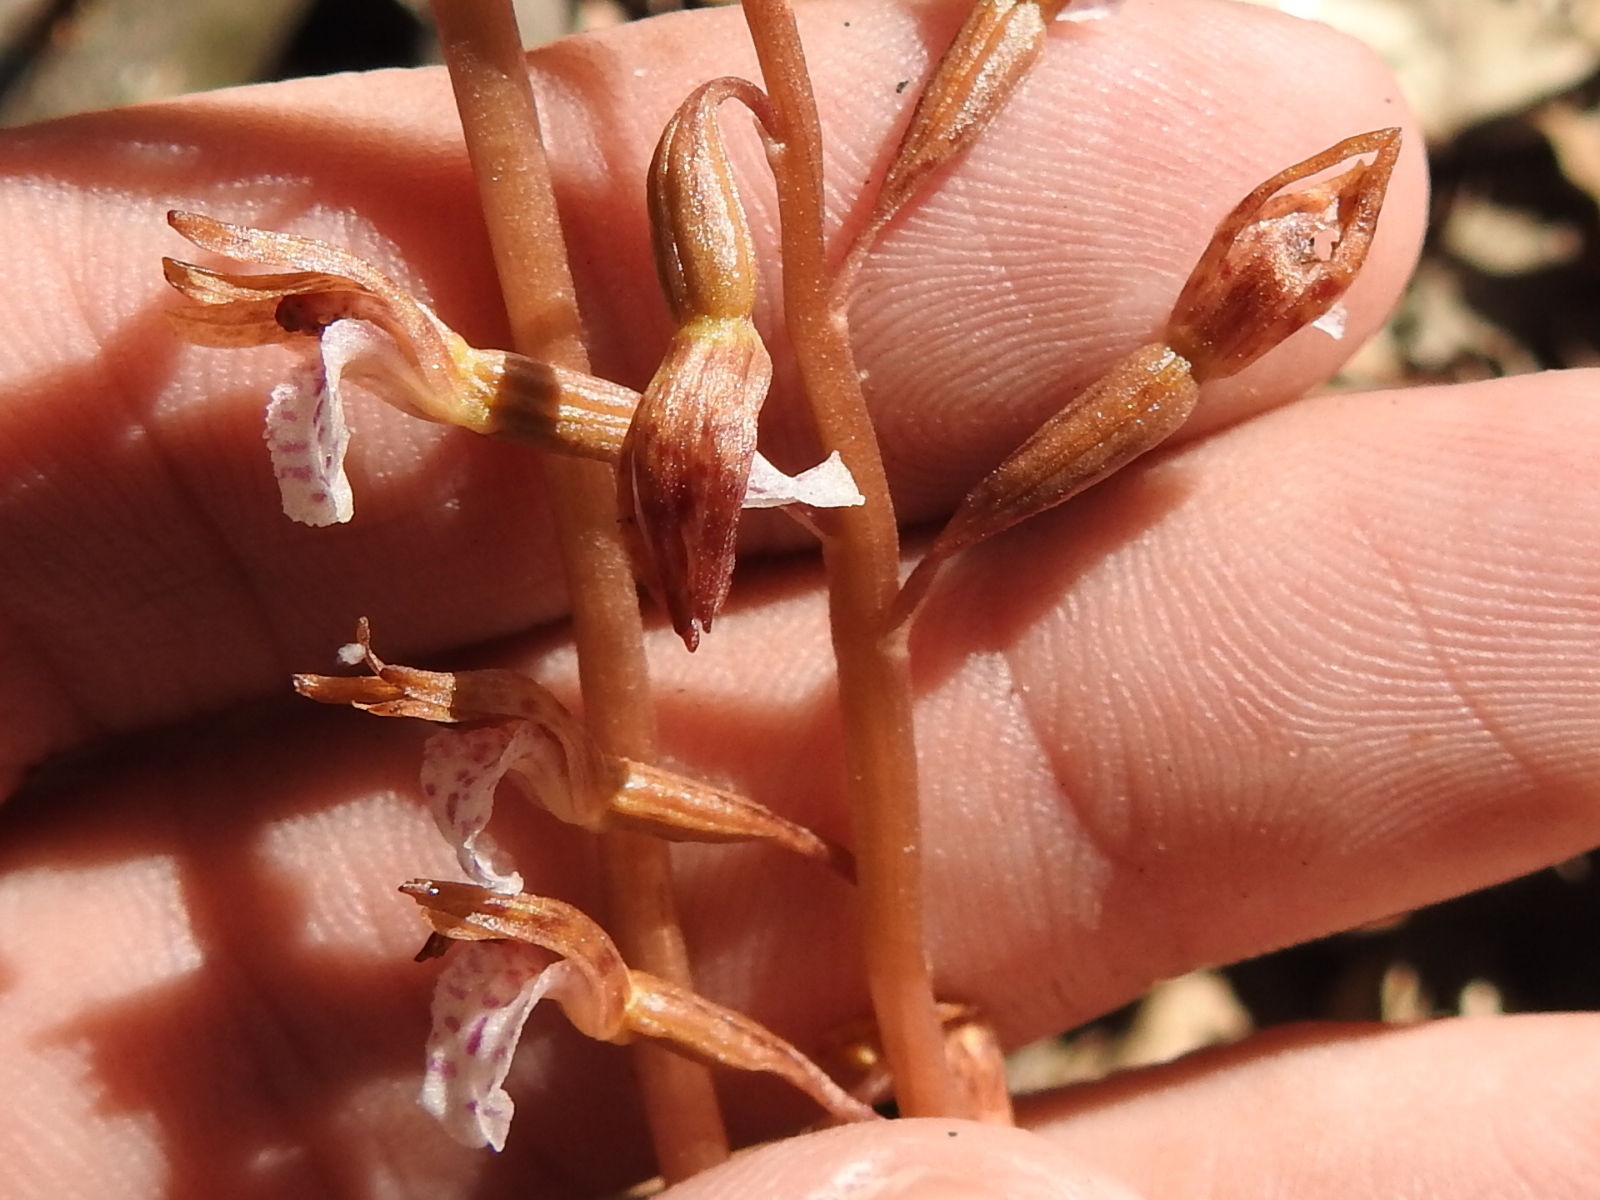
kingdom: Plantae
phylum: Tracheophyta
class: Liliopsida
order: Asparagales
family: Orchidaceae
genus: Corallorhiza
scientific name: Corallorhiza wisteriana
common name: Spring coralroot
